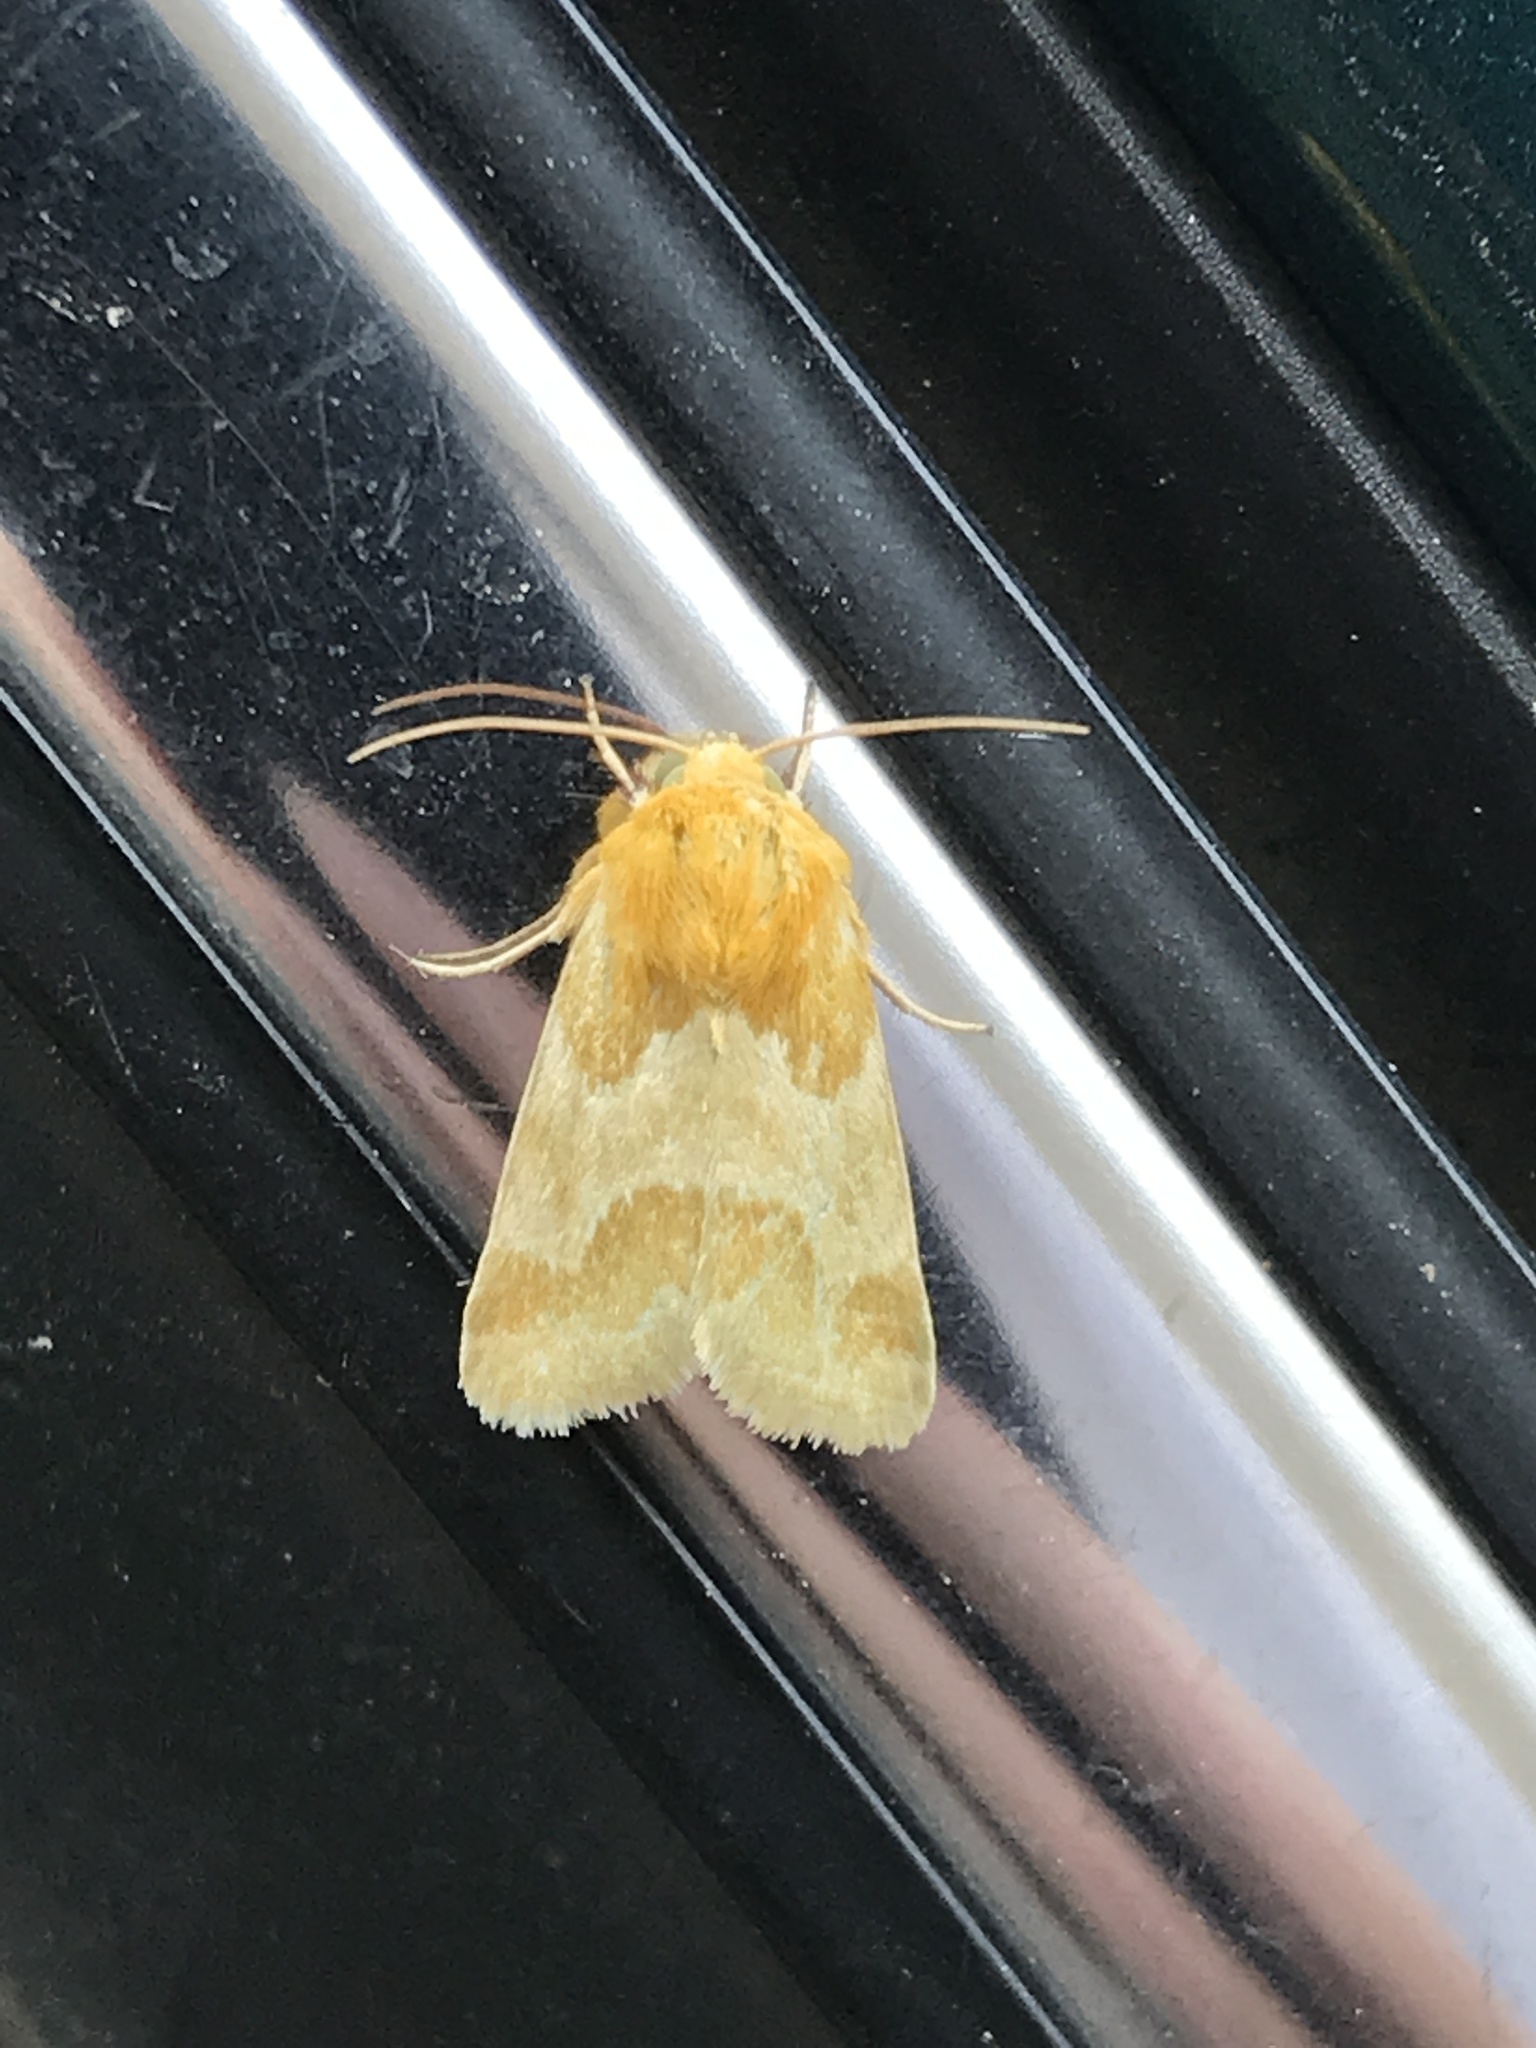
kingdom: Animalia
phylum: Arthropoda
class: Insecta
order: Lepidoptera
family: Noctuidae
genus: Schinia
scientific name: Schinia siren
